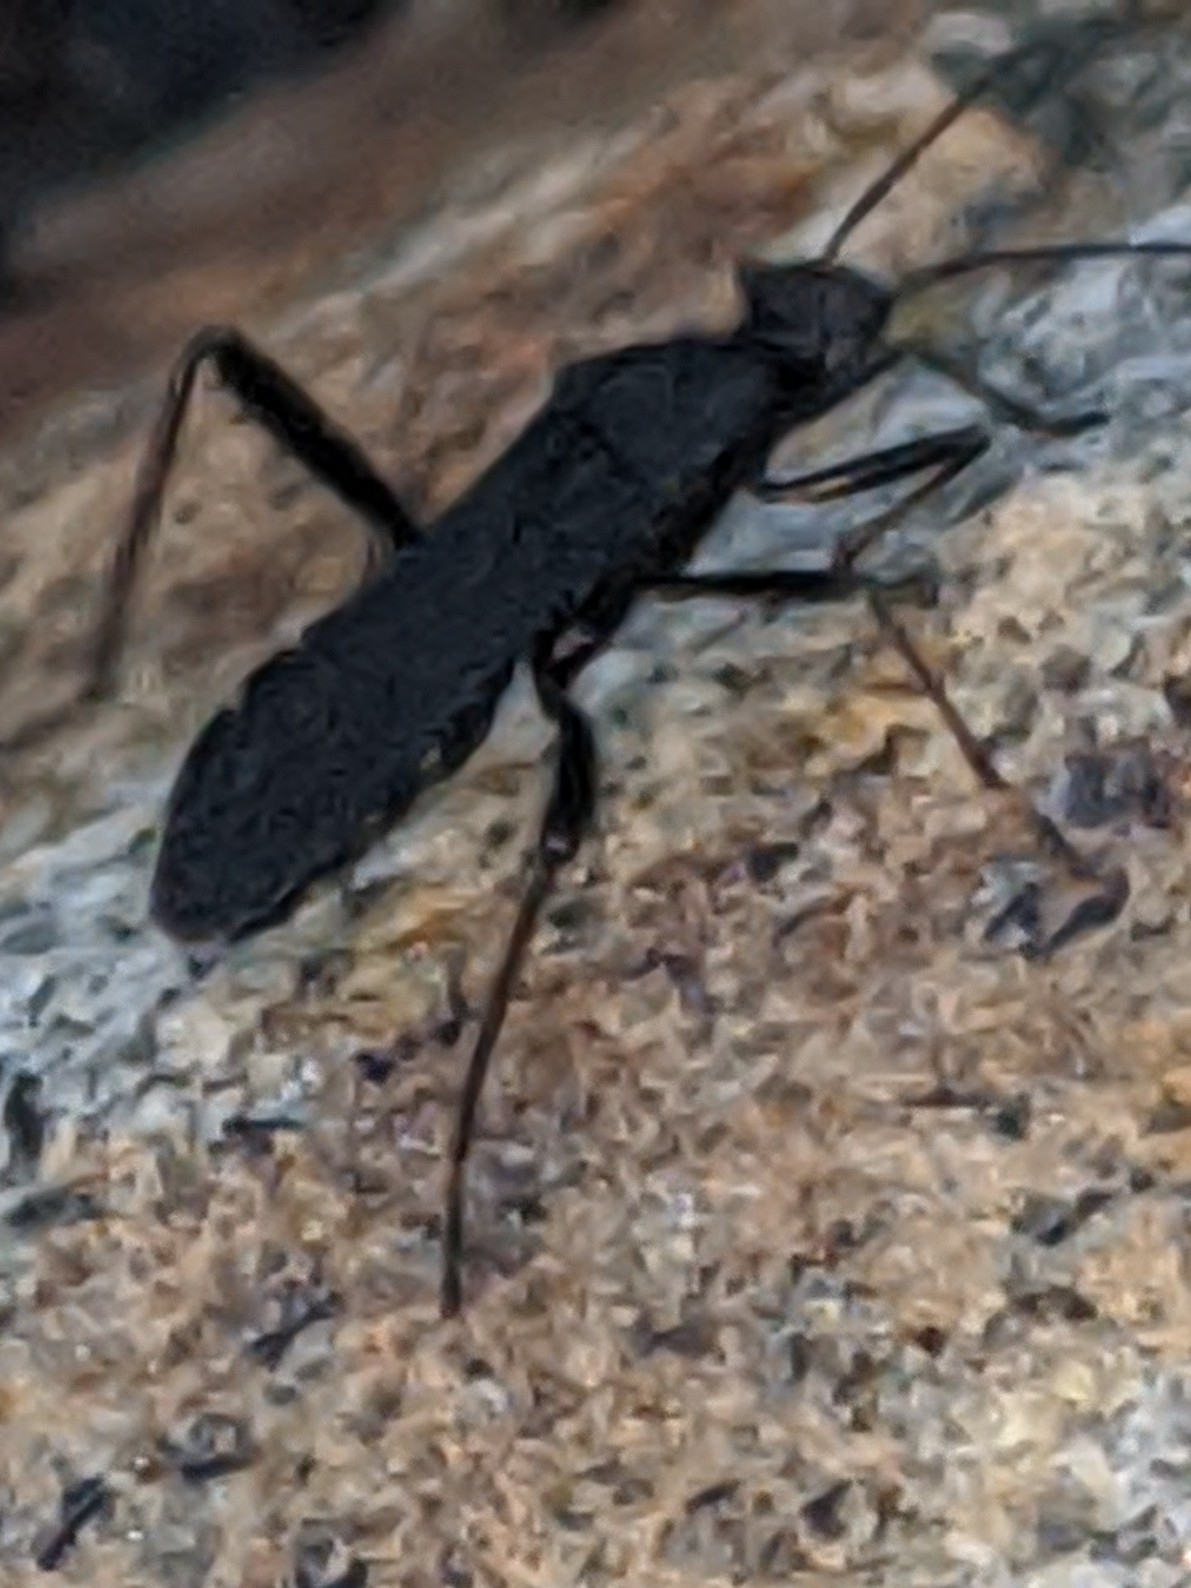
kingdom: Animalia
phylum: Arthropoda
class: Insecta
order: Hemiptera
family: Alydidae
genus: Alydus
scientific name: Alydus eurinus
